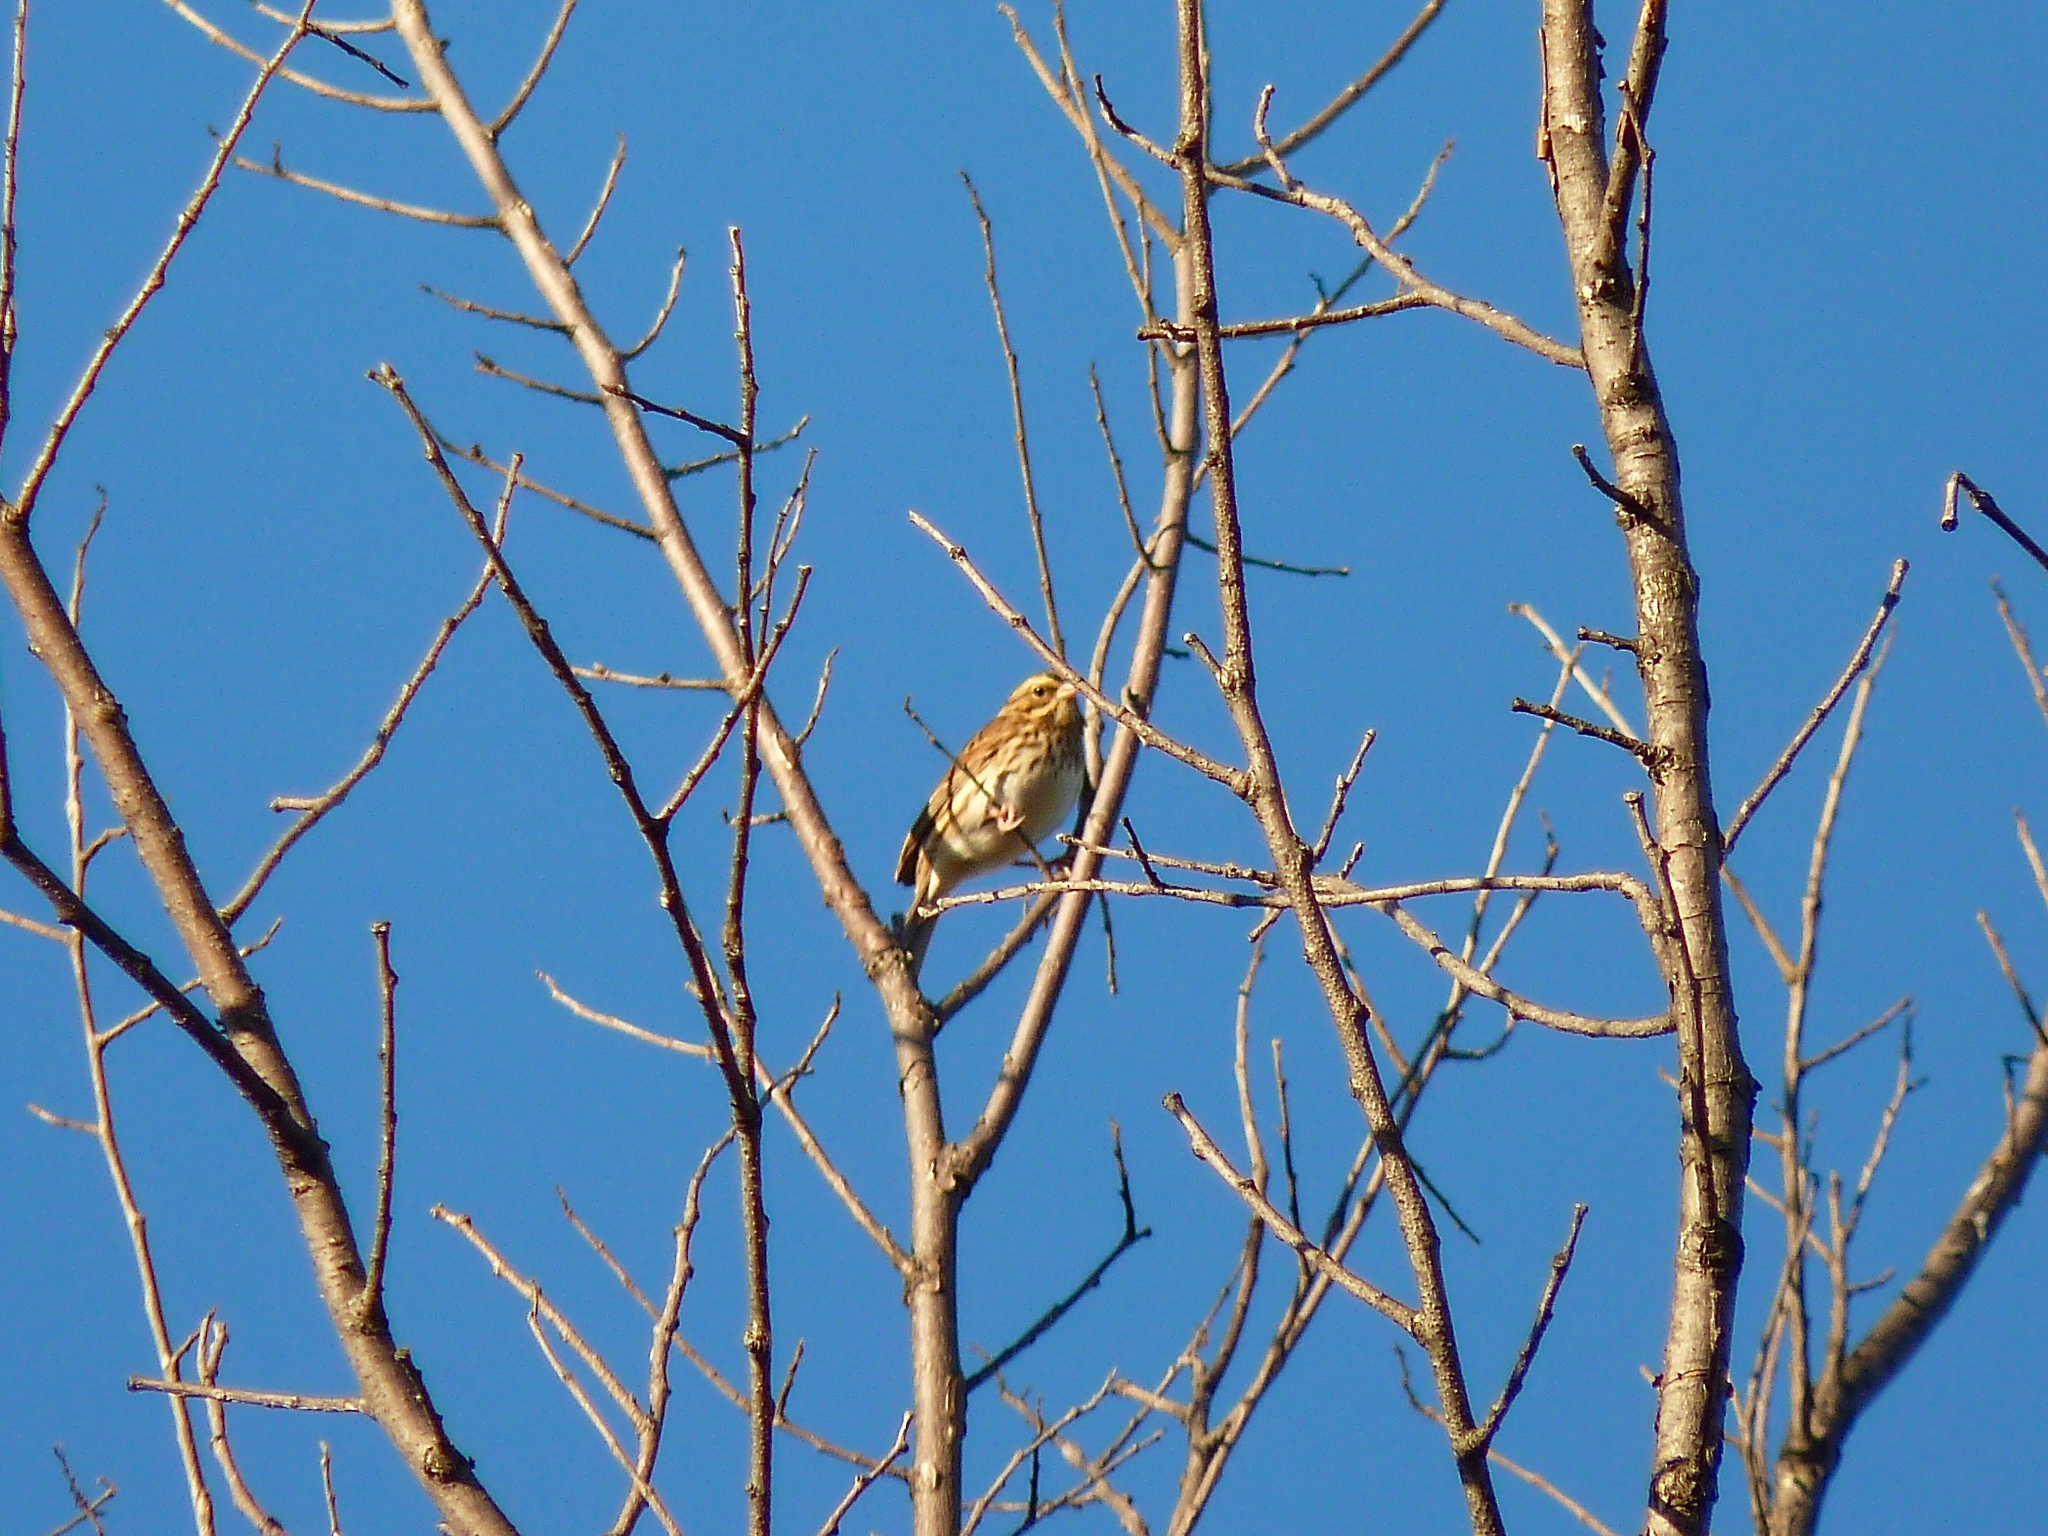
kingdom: Animalia
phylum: Chordata
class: Aves
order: Passeriformes
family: Passerellidae
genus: Passerculus
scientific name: Passerculus sandwichensis
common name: Savannah sparrow
